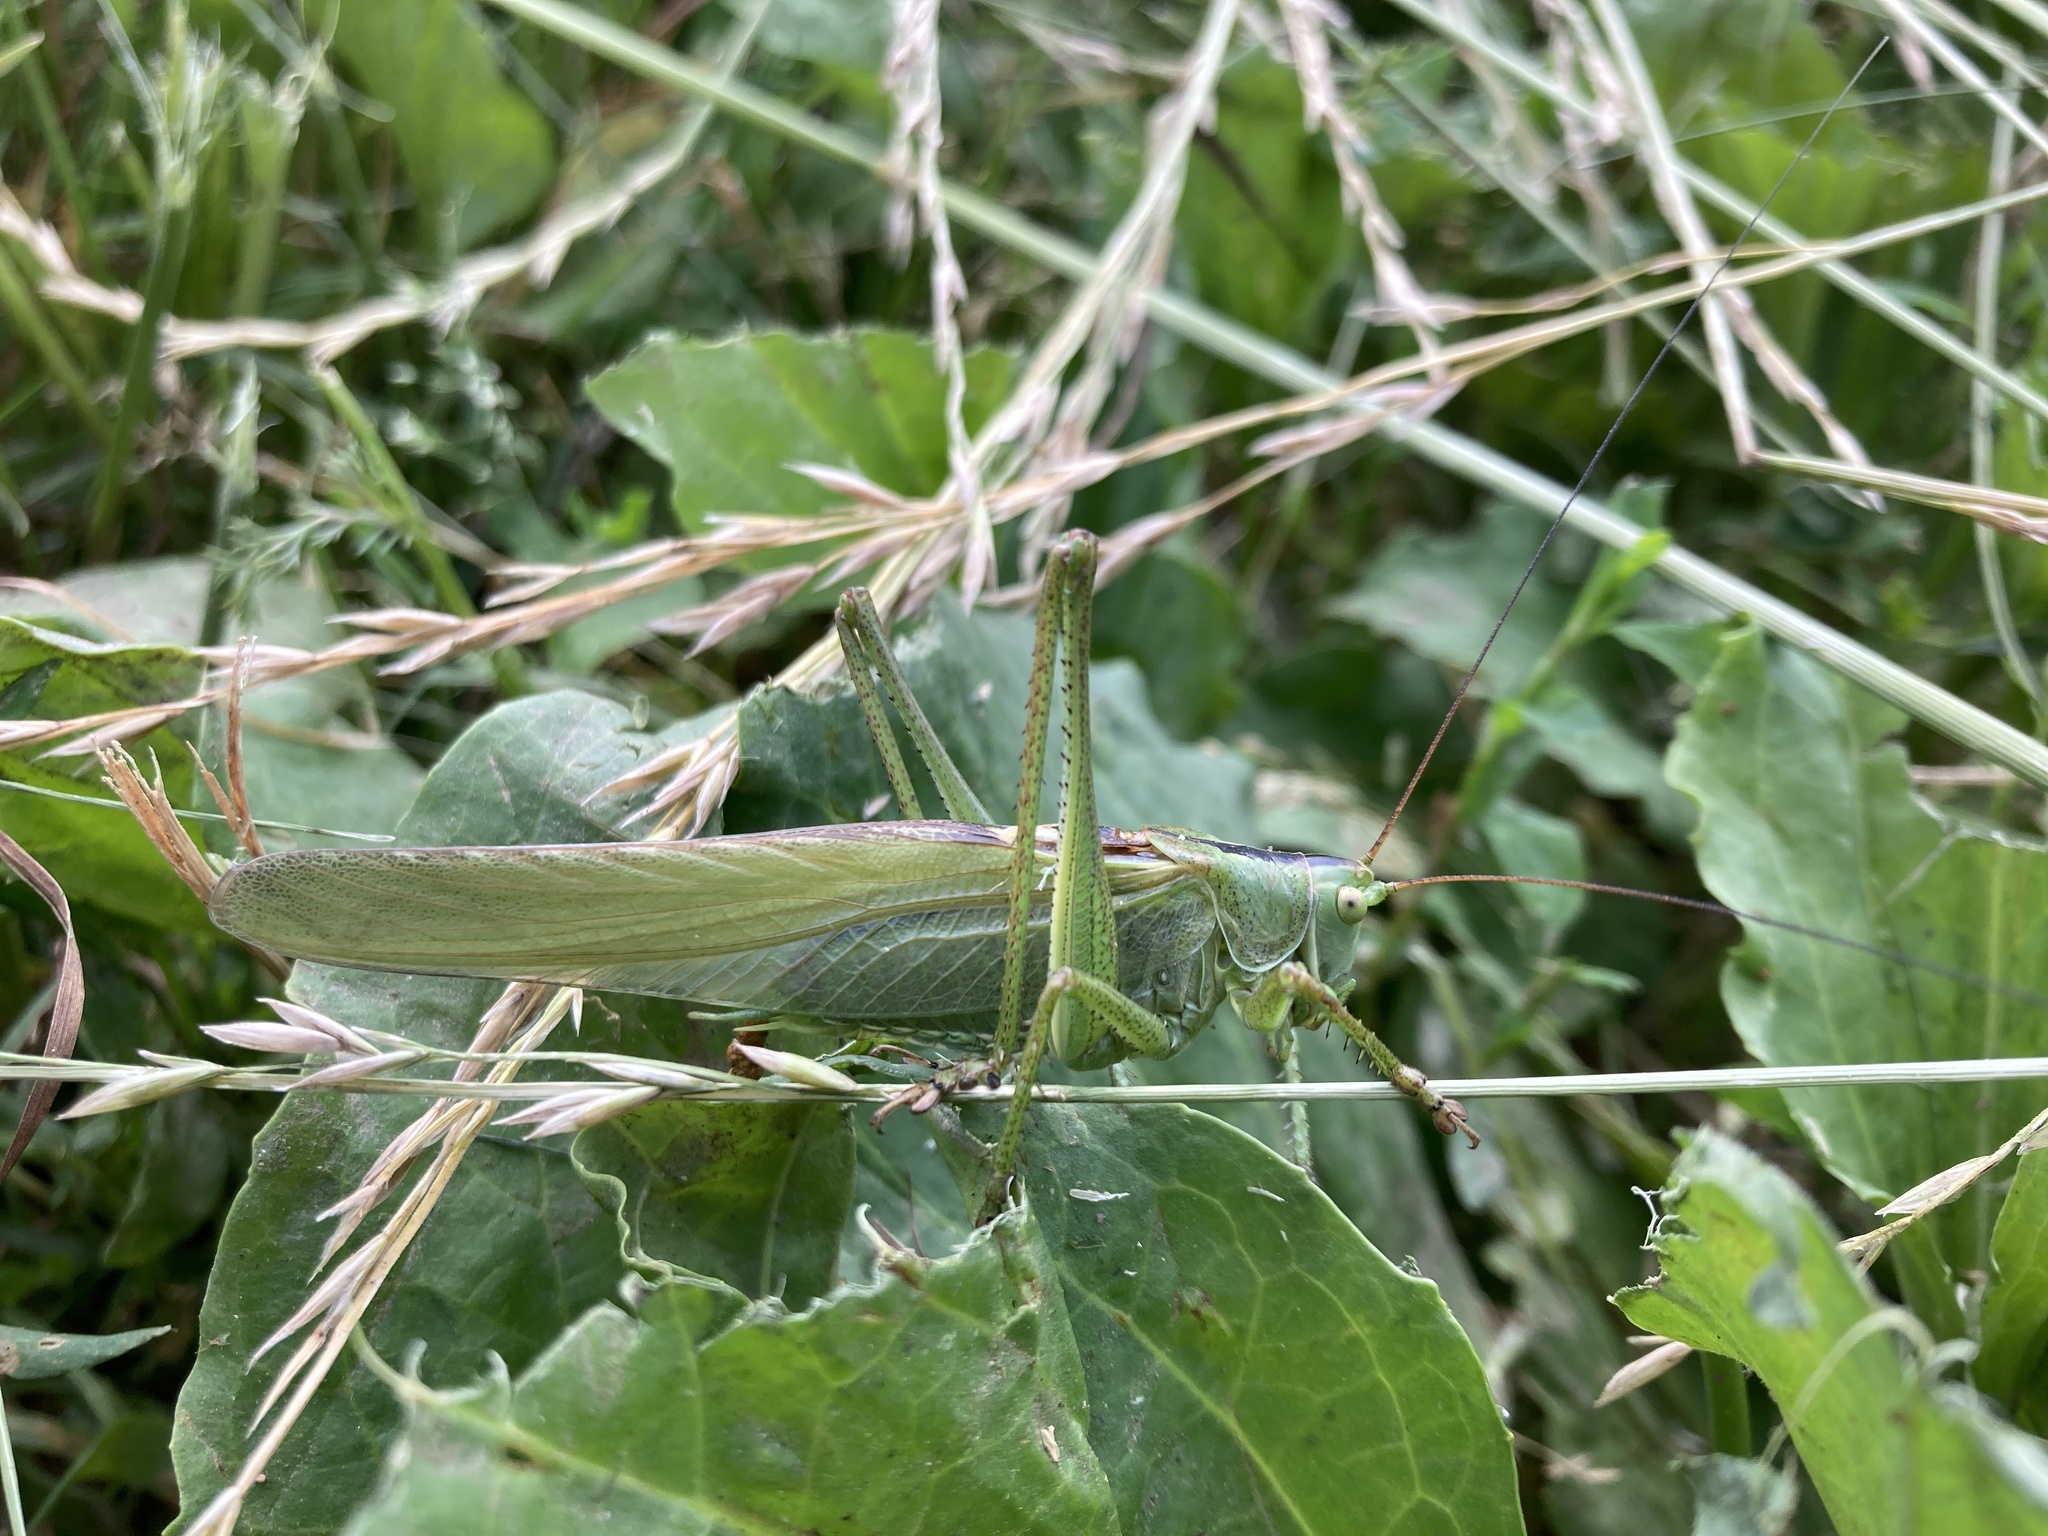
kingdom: Animalia
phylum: Arthropoda
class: Insecta
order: Orthoptera
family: Tettigoniidae
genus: Tettigonia
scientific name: Tettigonia viridissima
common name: Great green bush-cricket
